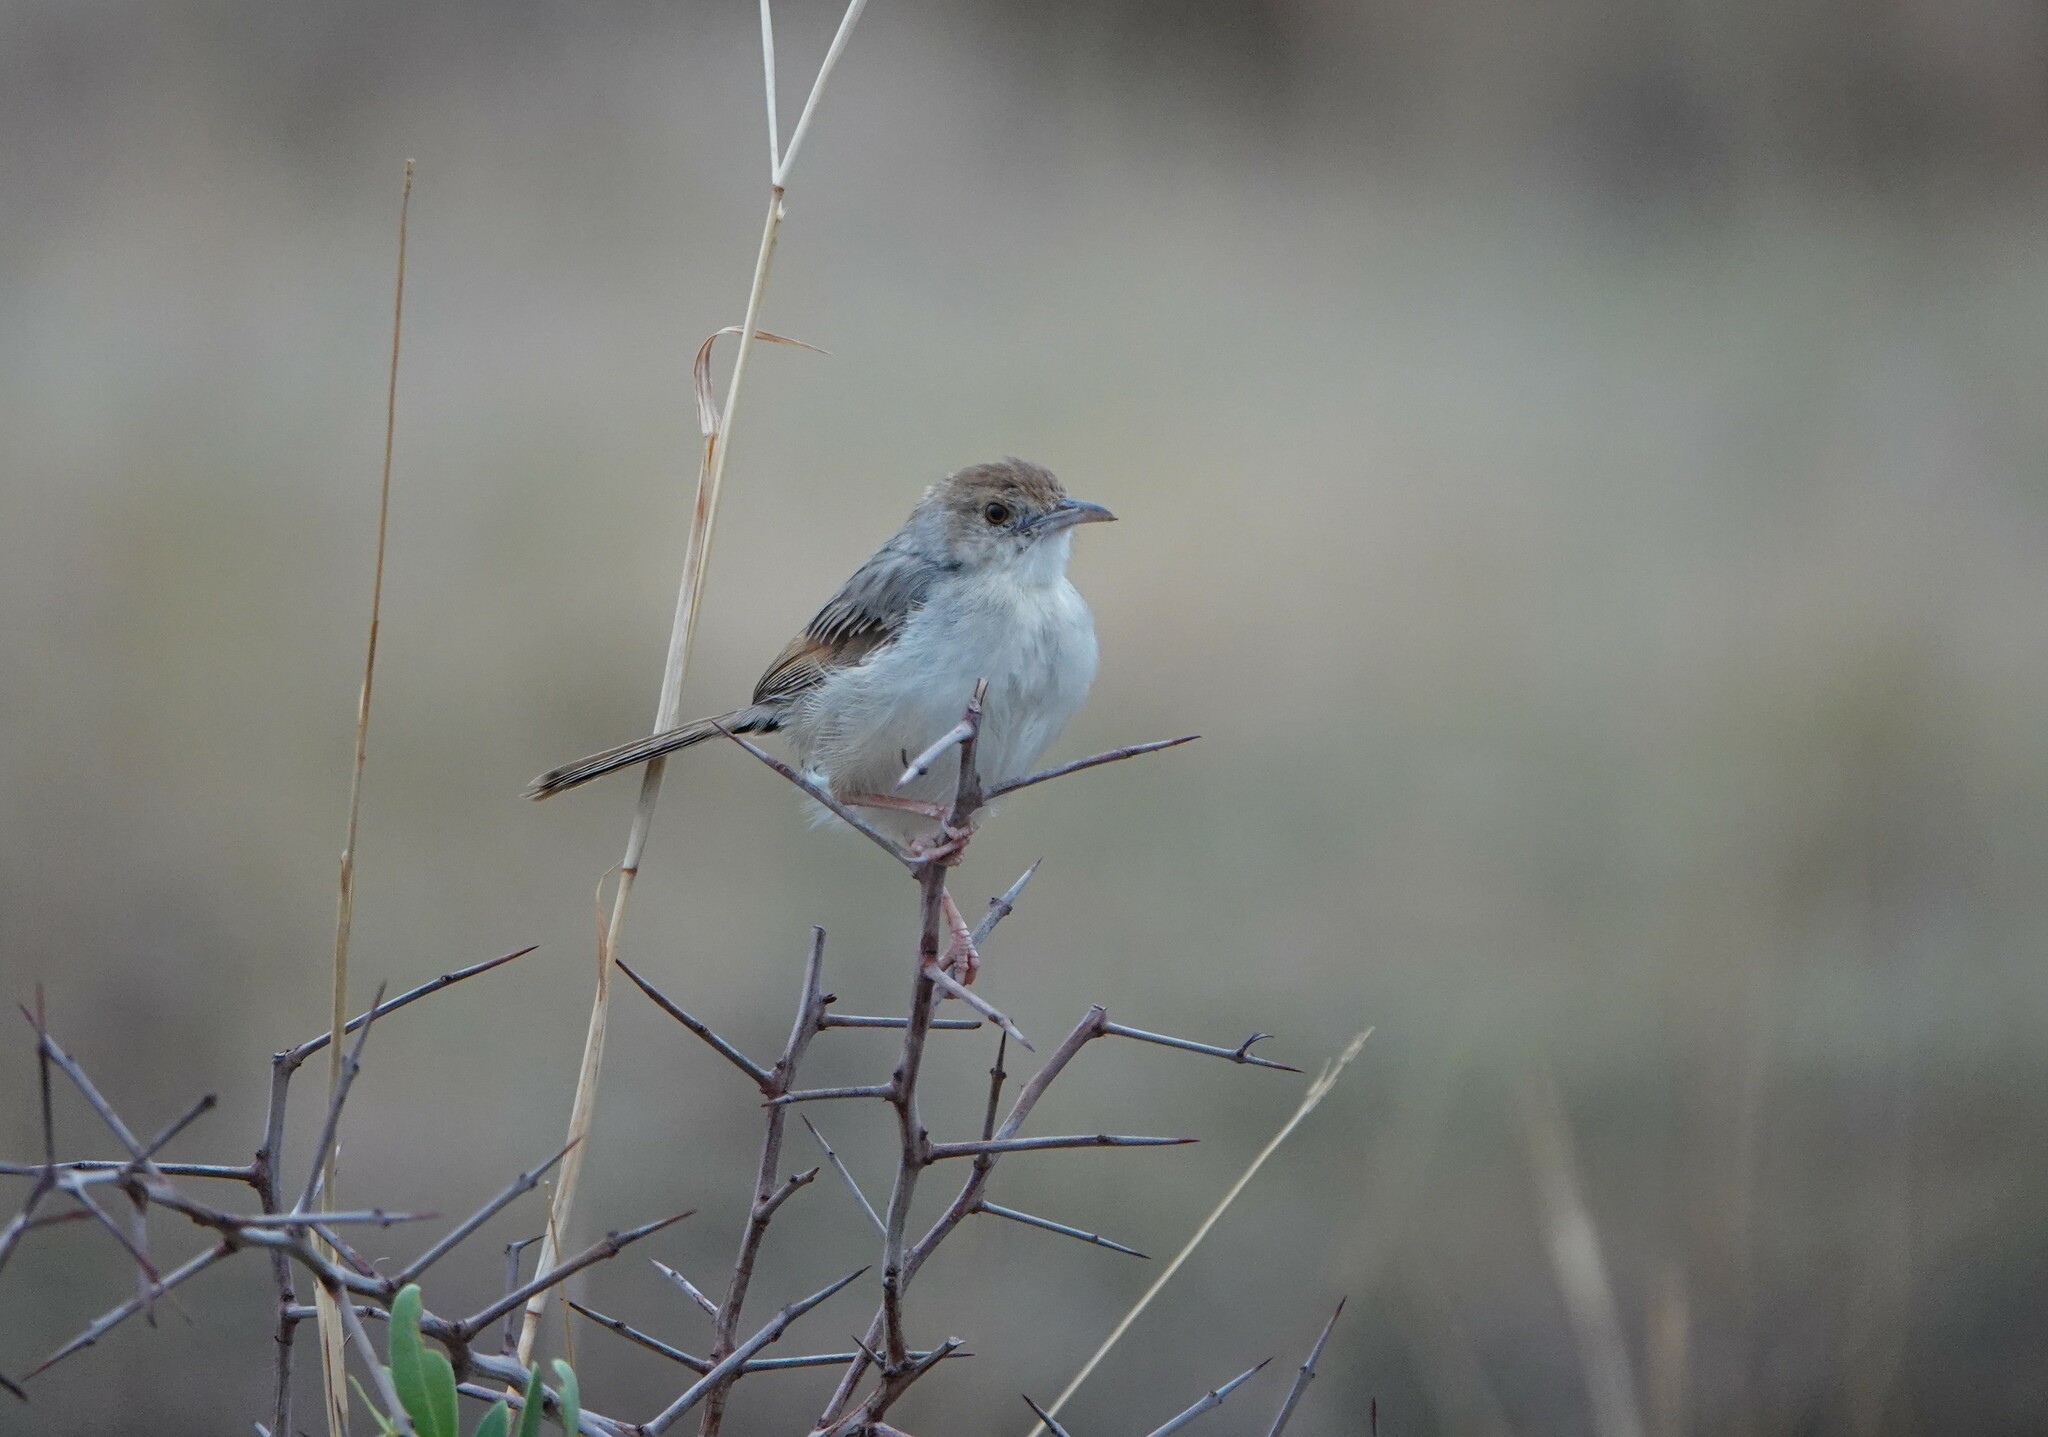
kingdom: Animalia
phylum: Chordata
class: Aves
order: Passeriformes
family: Cisticolidae
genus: Cisticola
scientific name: Cisticola chiniana
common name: Rattling cisticola
